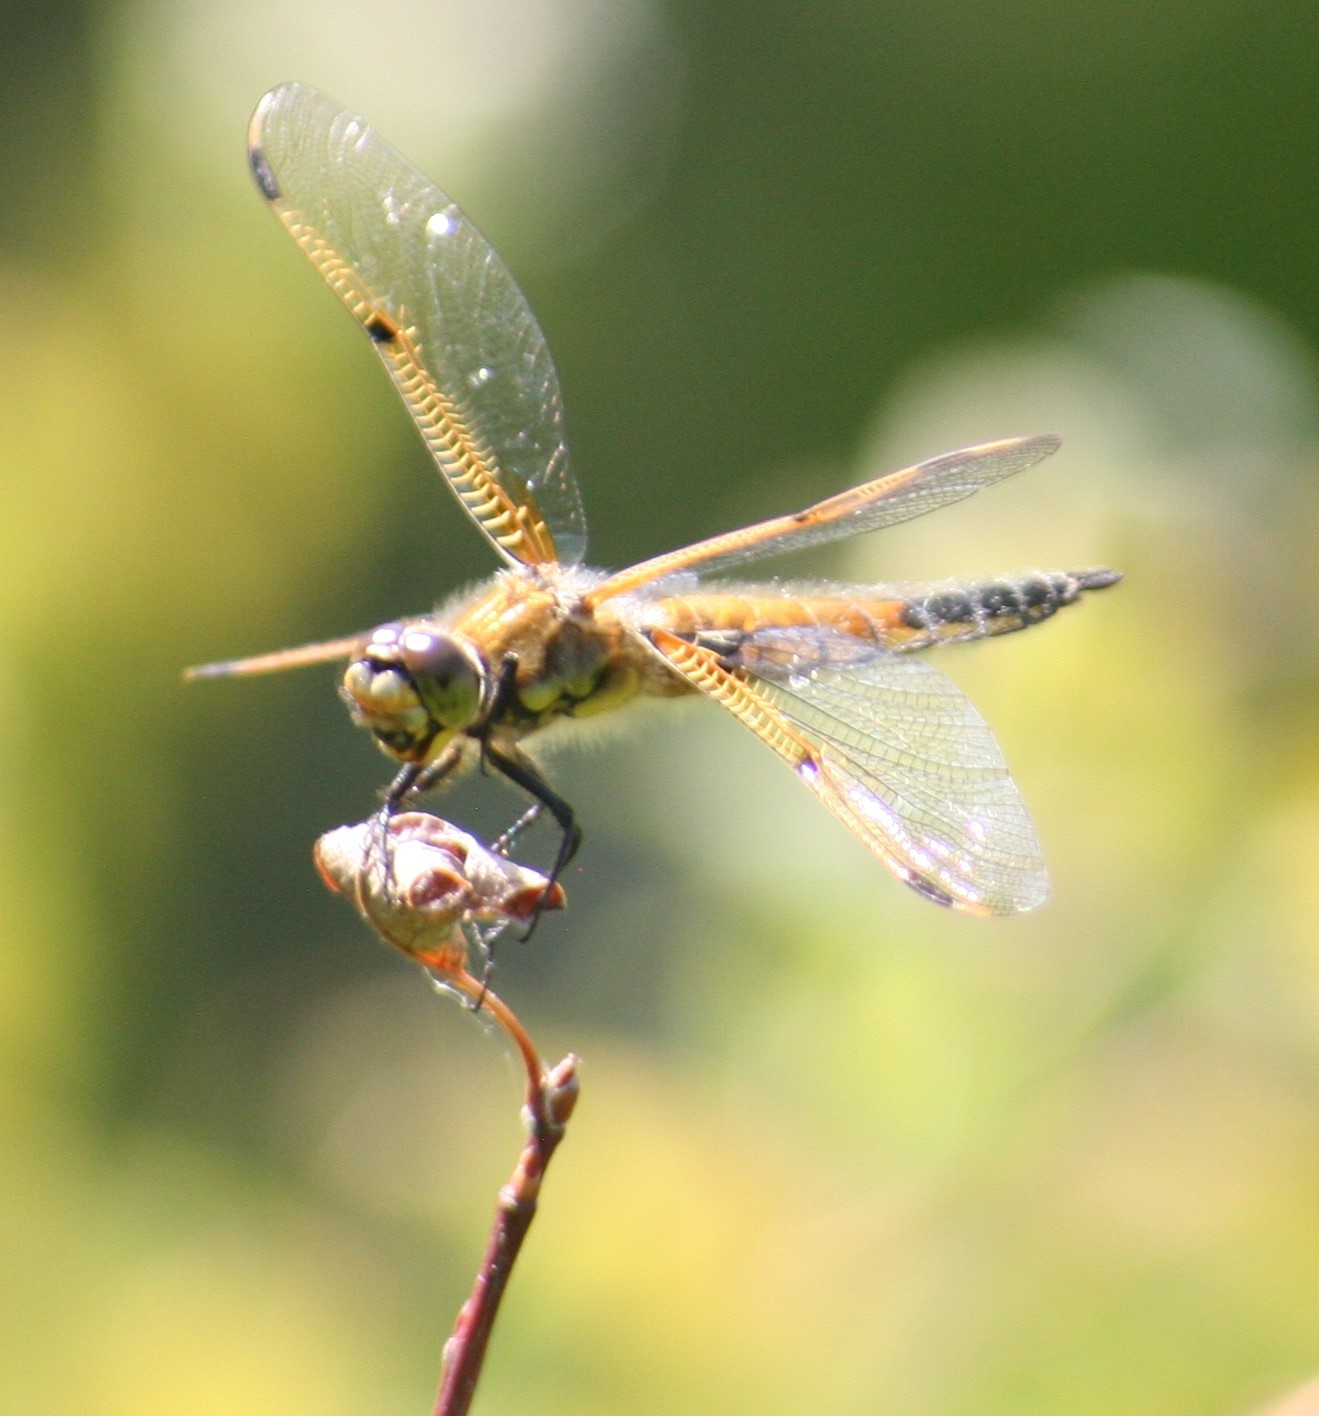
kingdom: Animalia
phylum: Arthropoda
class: Insecta
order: Odonata
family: Libellulidae
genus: Libellula
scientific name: Libellula quadrimaculata
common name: Four-spotted chaser
